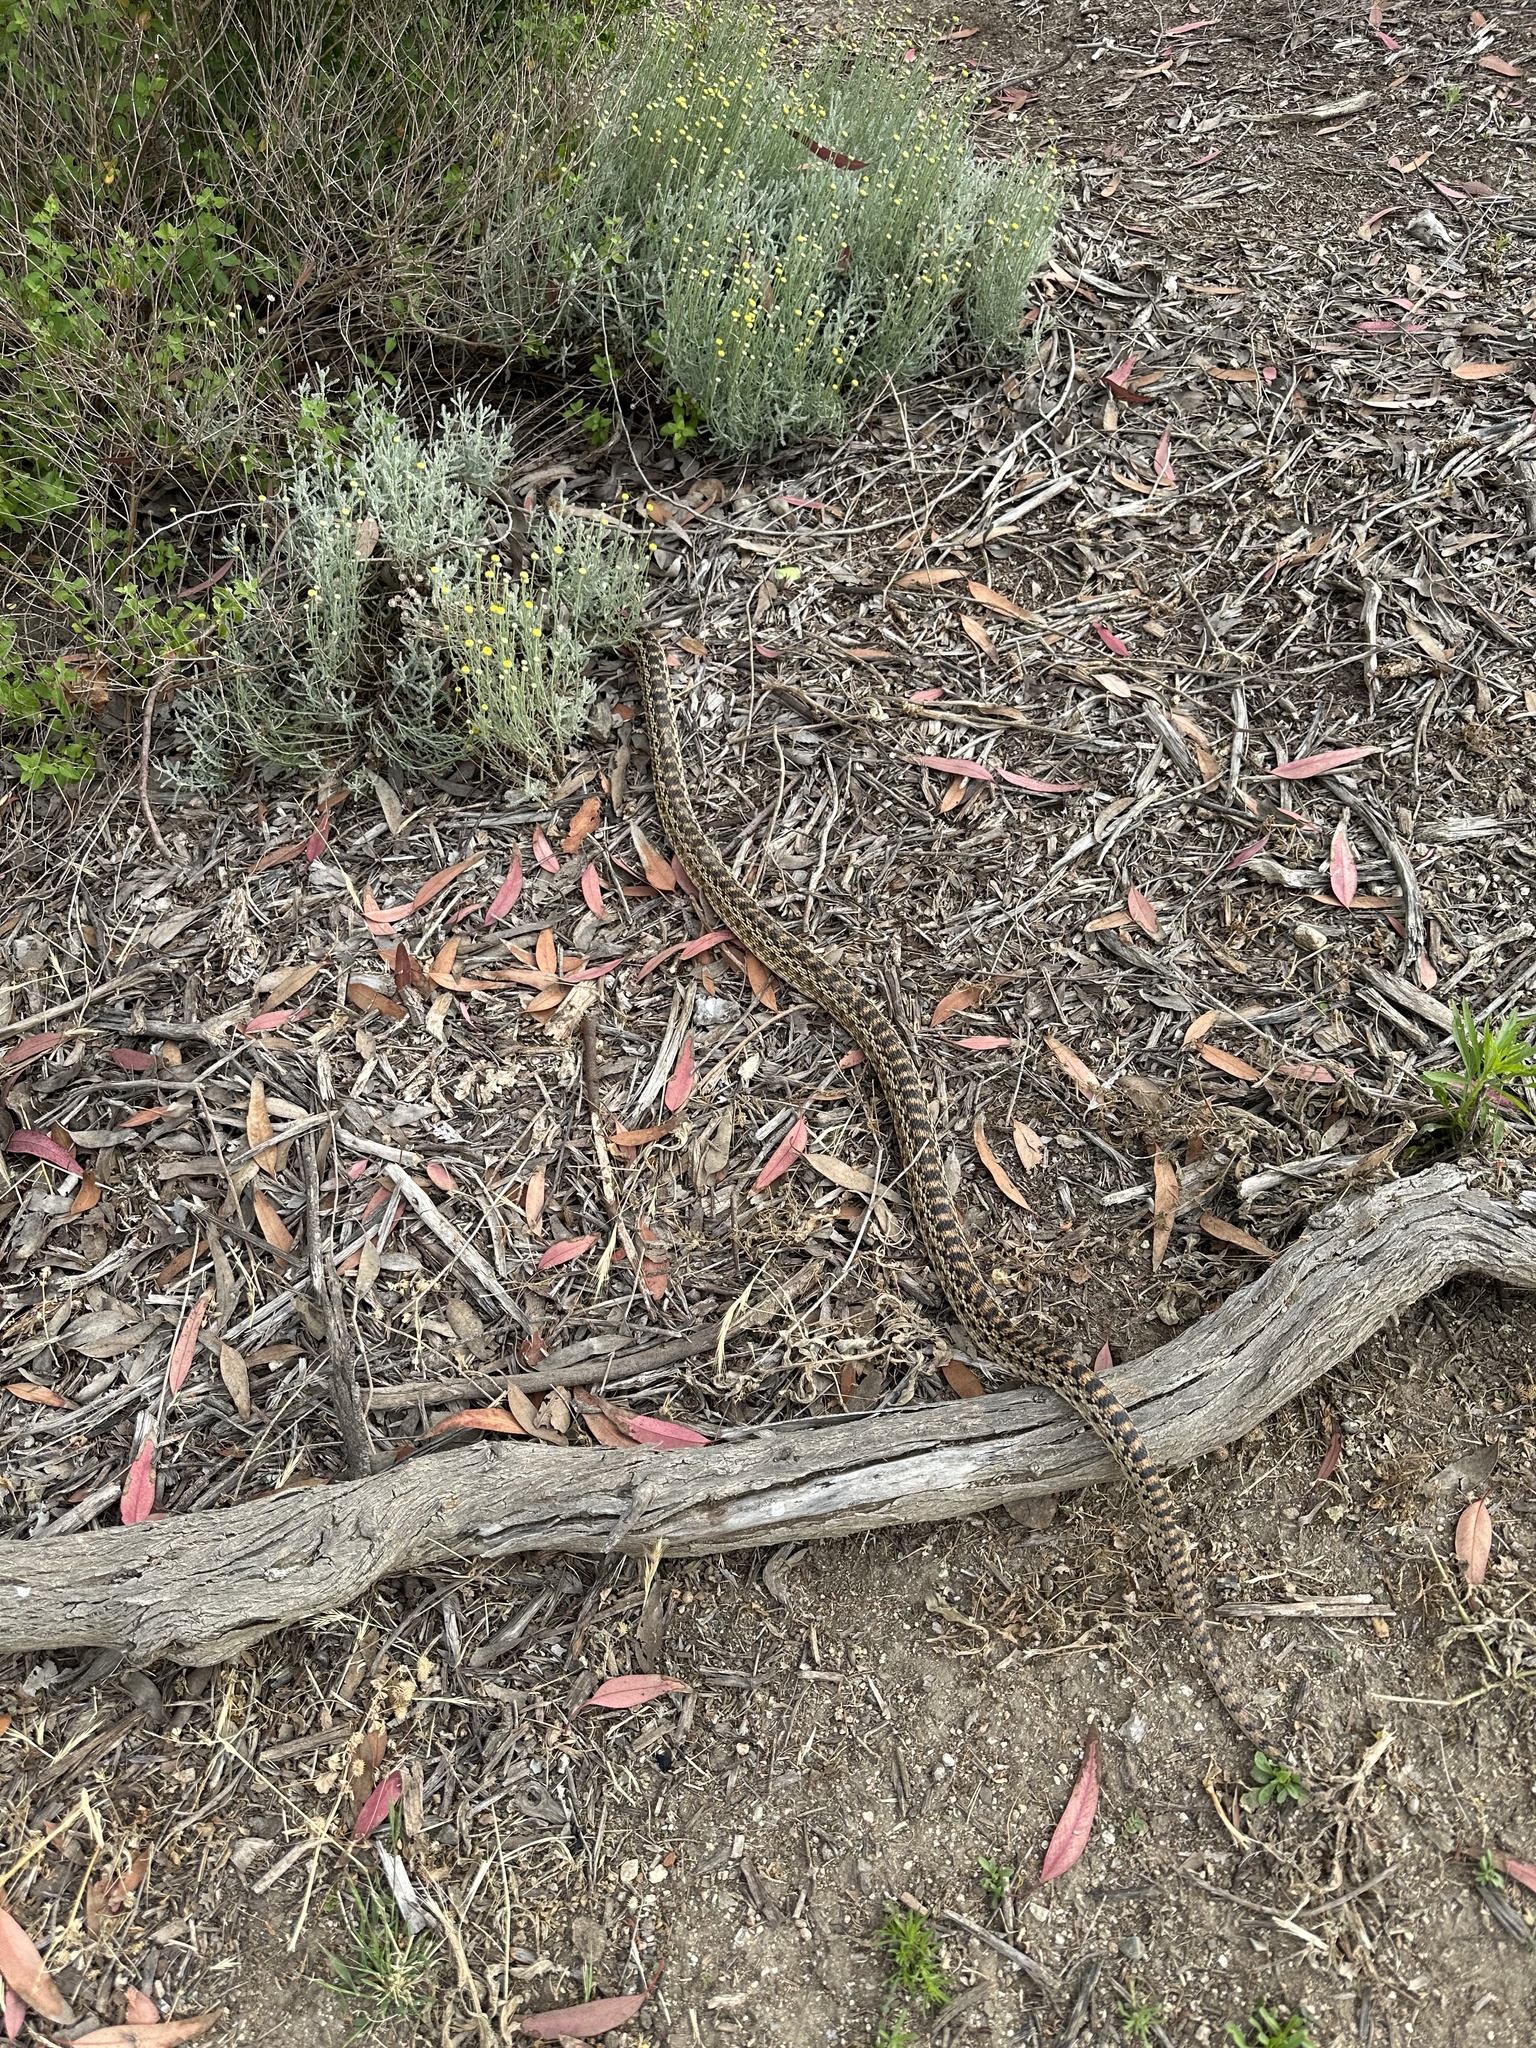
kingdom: Animalia
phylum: Chordata
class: Squamata
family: Colubridae
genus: Pituophis
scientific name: Pituophis catenifer
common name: Gopher snake
